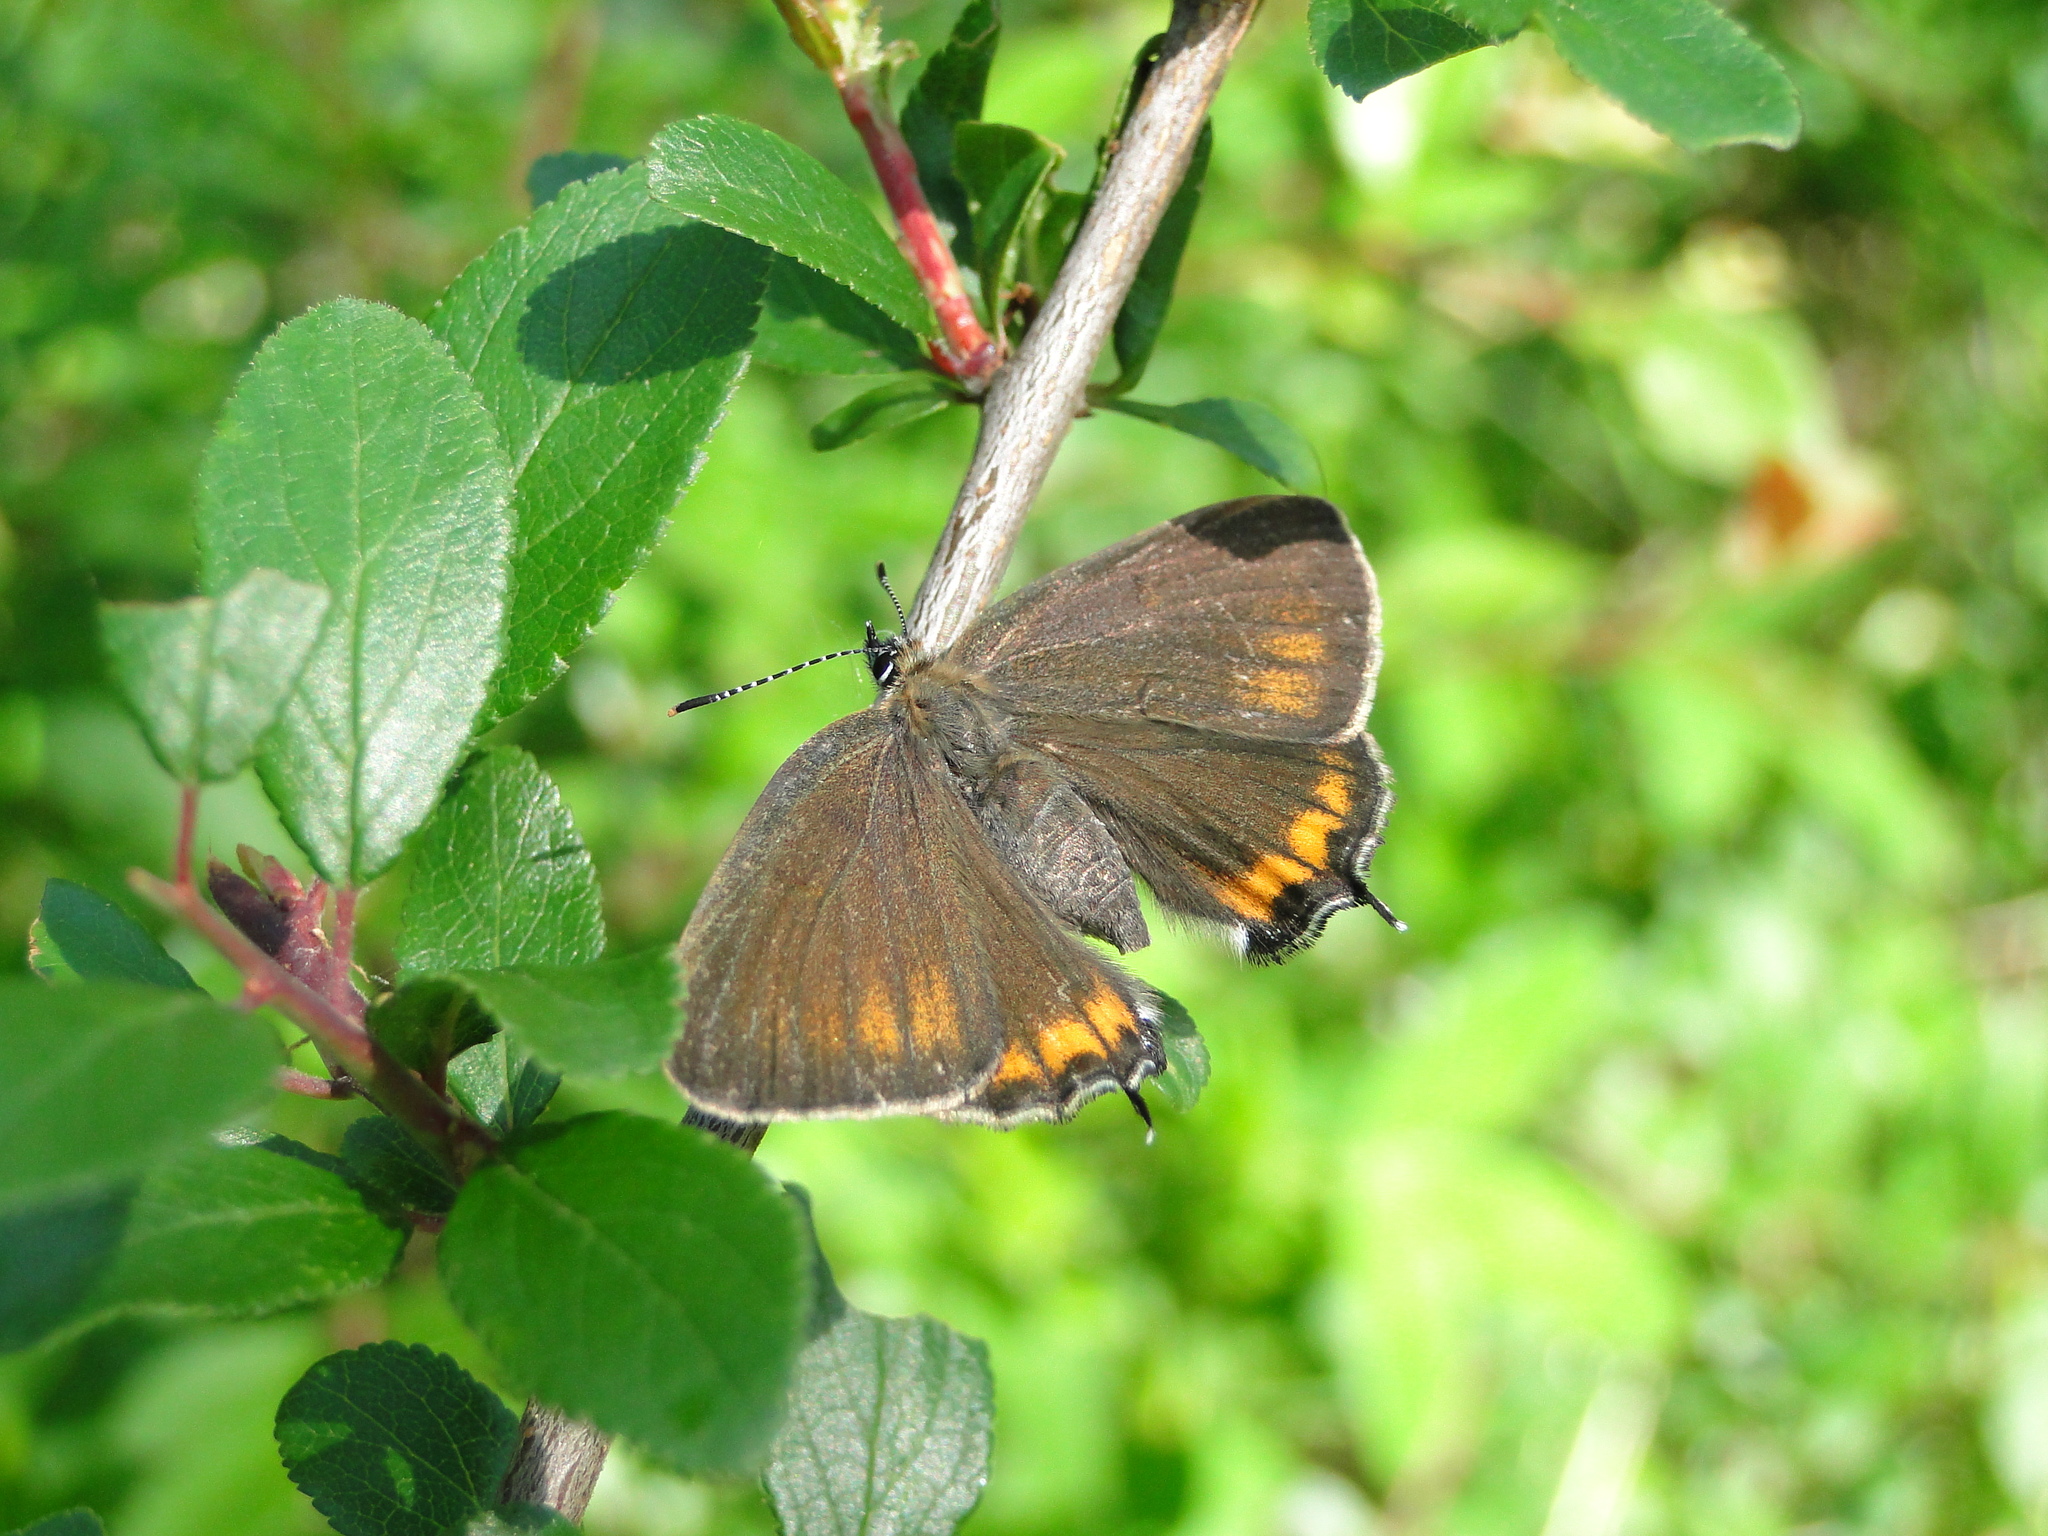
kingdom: Animalia
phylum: Arthropoda
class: Insecta
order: Lepidoptera
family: Lycaenidae
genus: Fixsenia
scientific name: Fixsenia pruni
